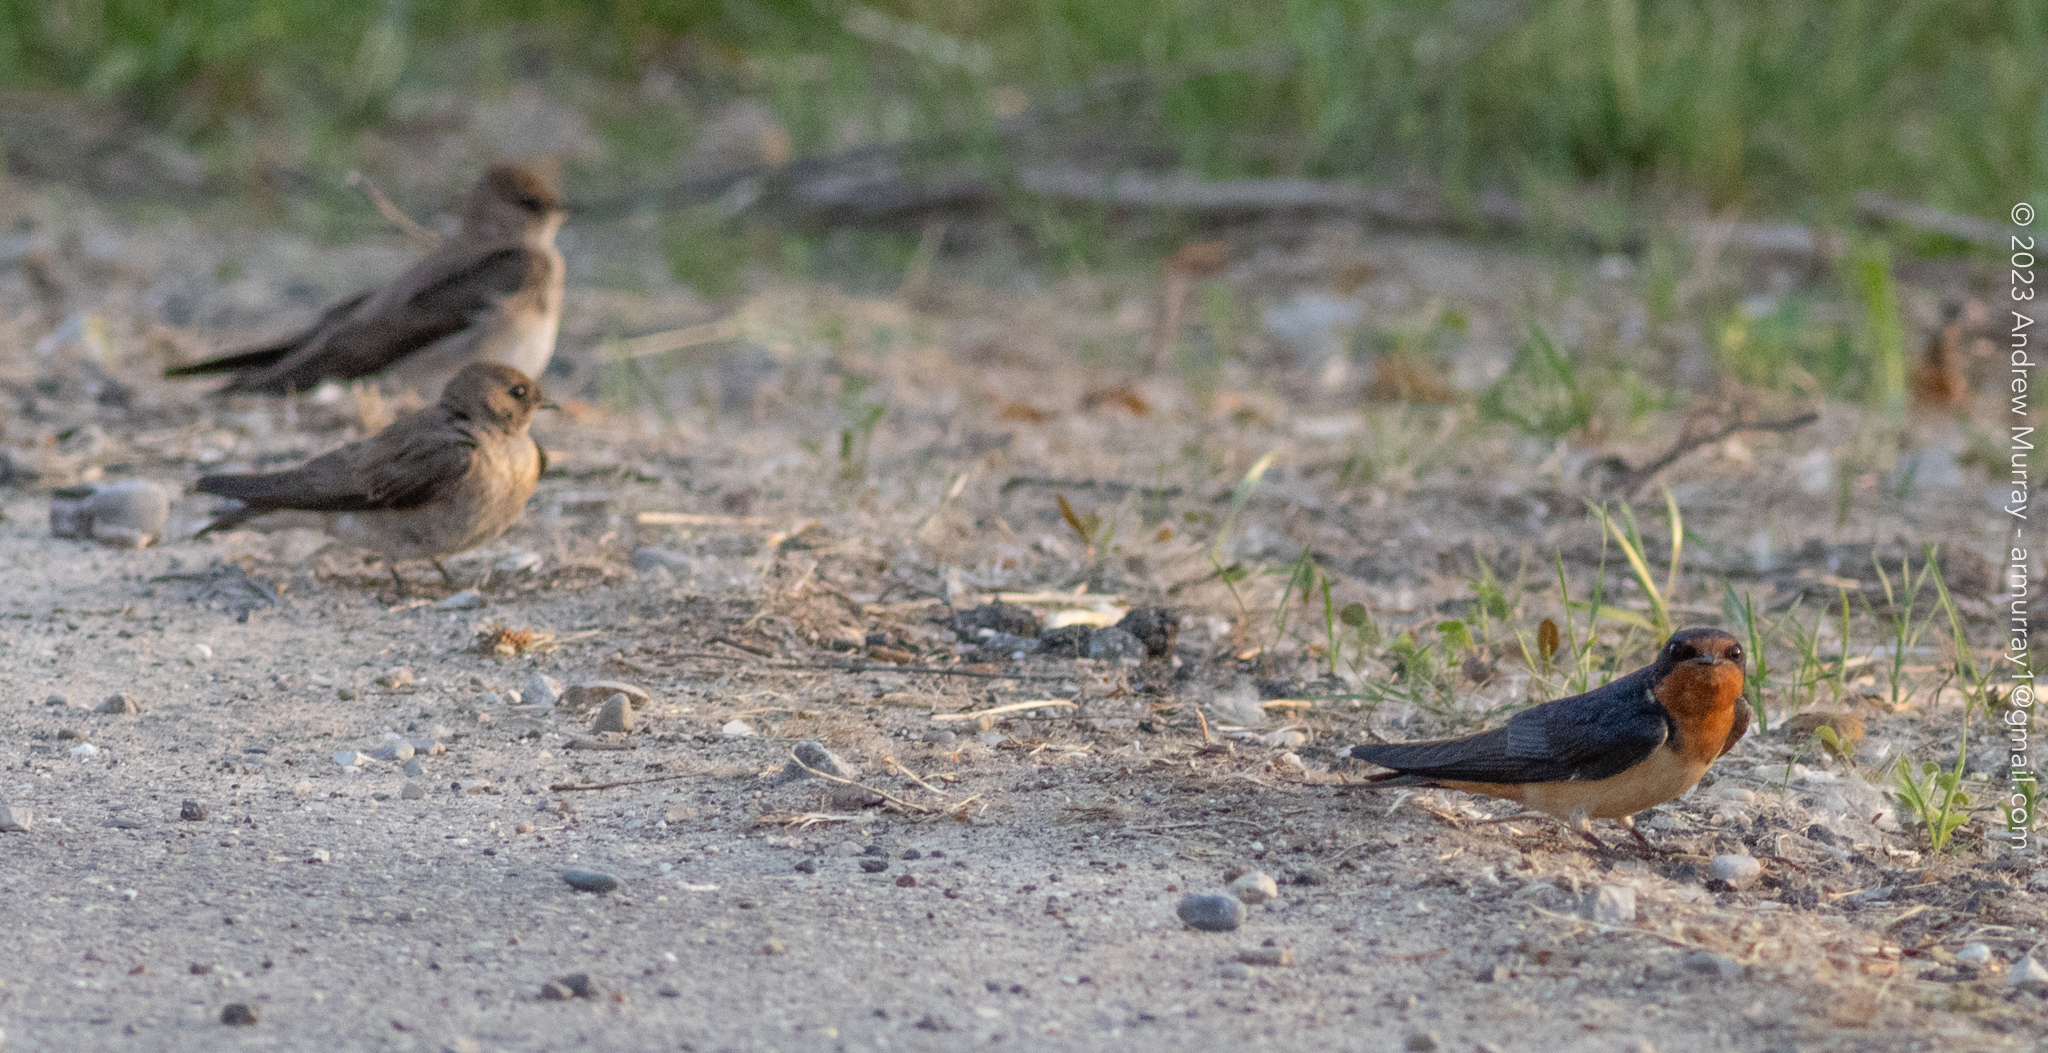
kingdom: Animalia
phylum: Chordata
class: Aves
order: Passeriformes
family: Hirundinidae
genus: Hirundo
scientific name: Hirundo rustica
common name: Barn swallow
